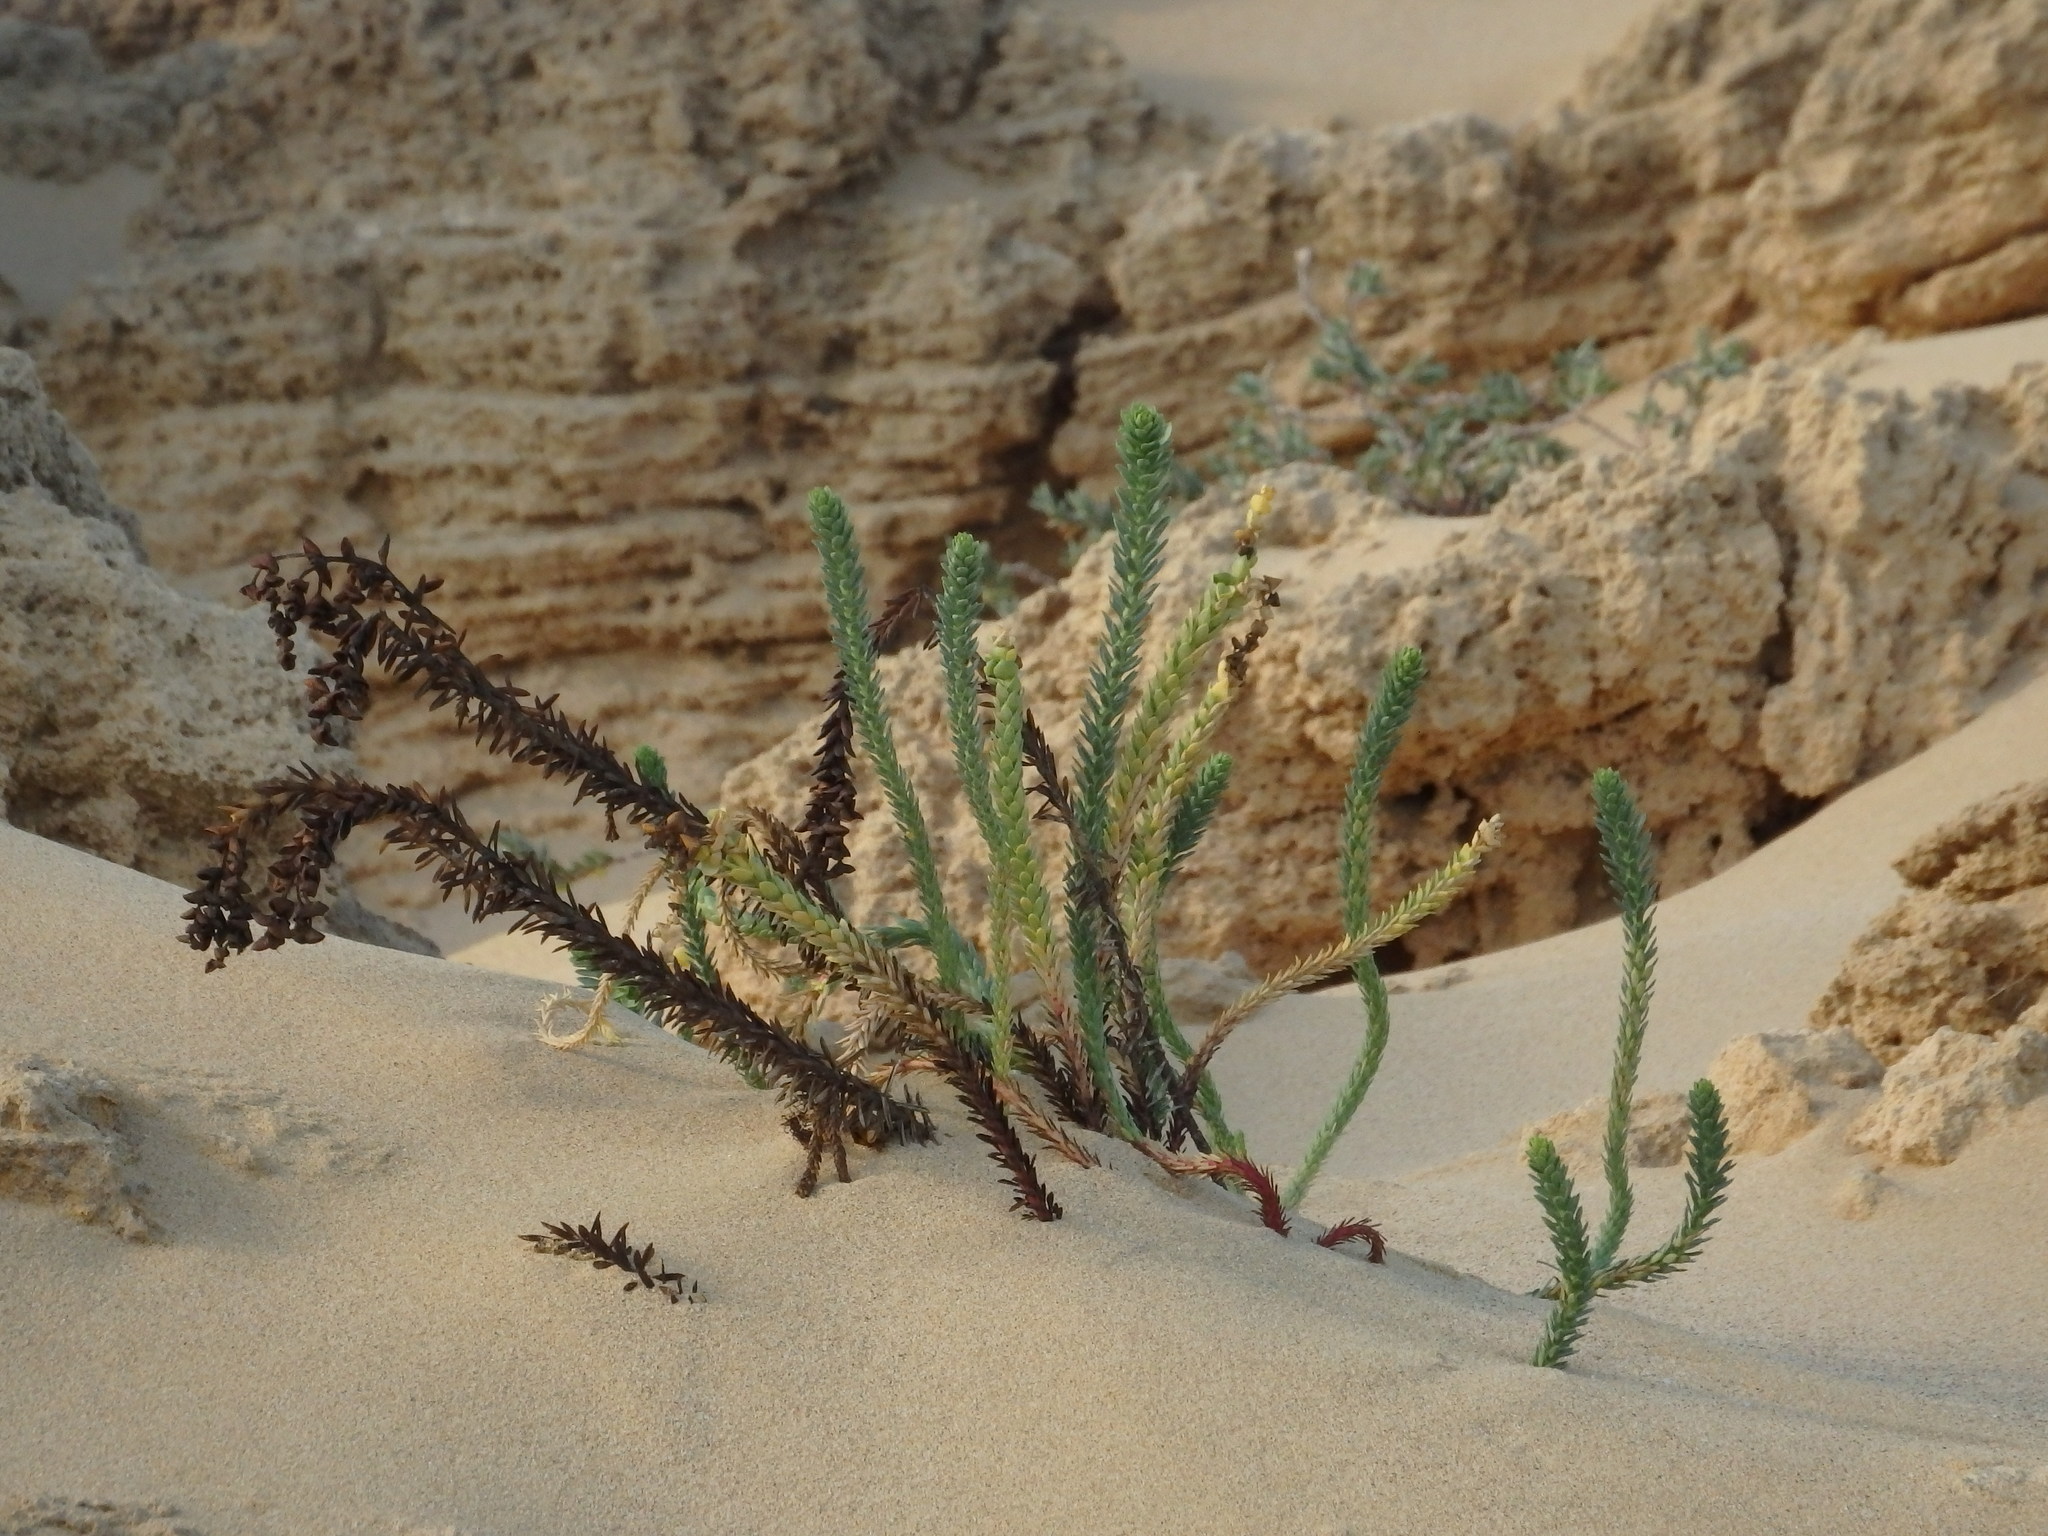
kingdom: Plantae
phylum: Tracheophyta
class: Magnoliopsida
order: Malpighiales
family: Euphorbiaceae
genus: Euphorbia
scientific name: Euphorbia paralias
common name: Sea spurge
